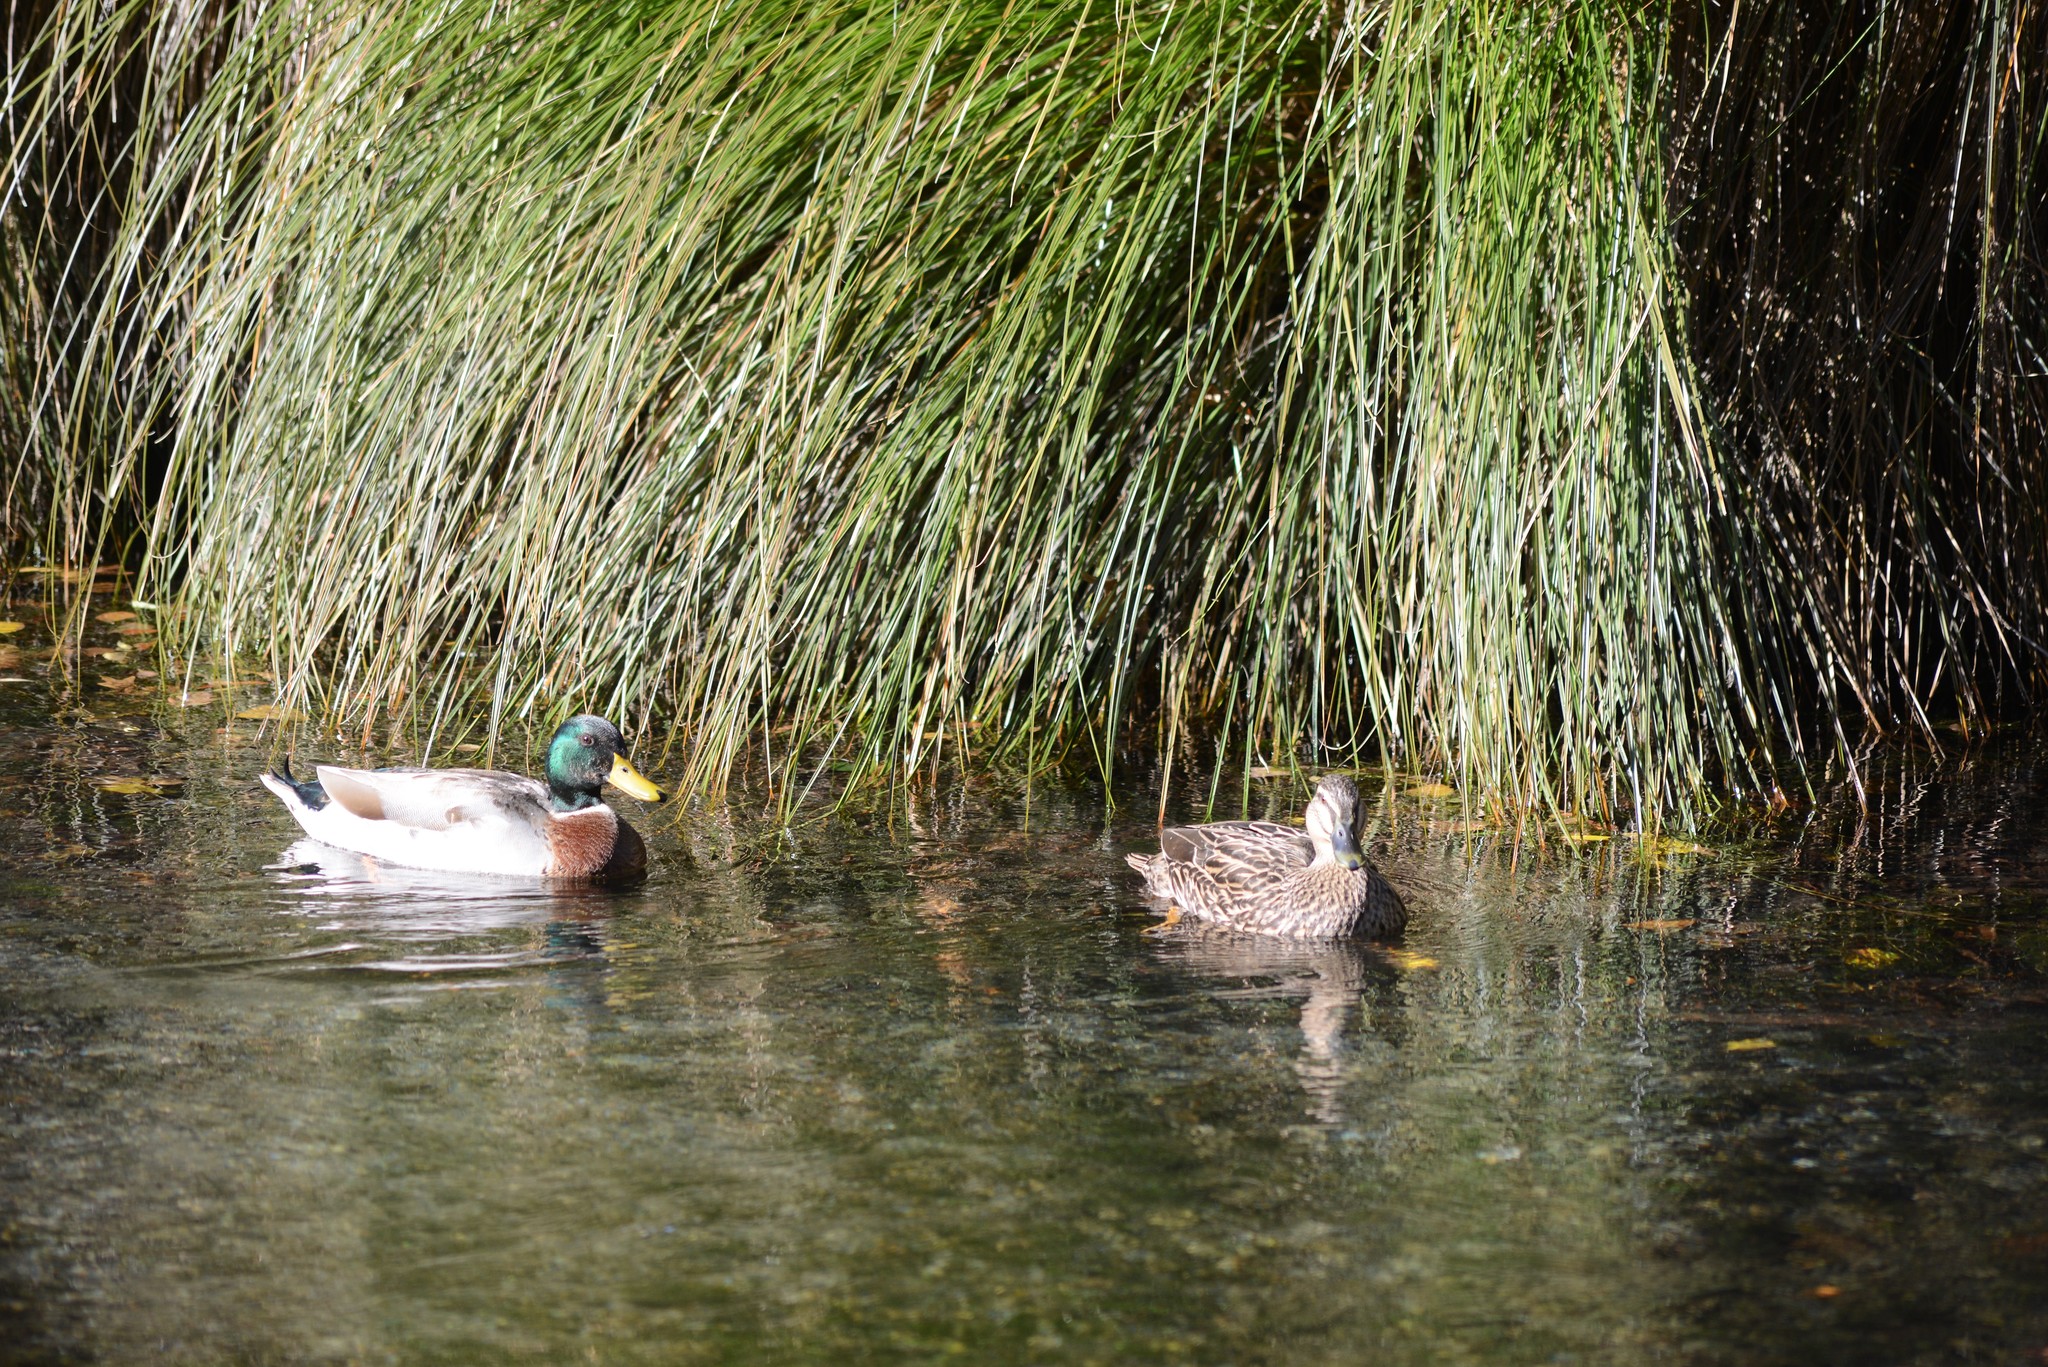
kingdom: Animalia
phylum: Chordata
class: Aves
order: Anseriformes
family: Anatidae
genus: Anas
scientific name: Anas platyrhynchos
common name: Mallard
